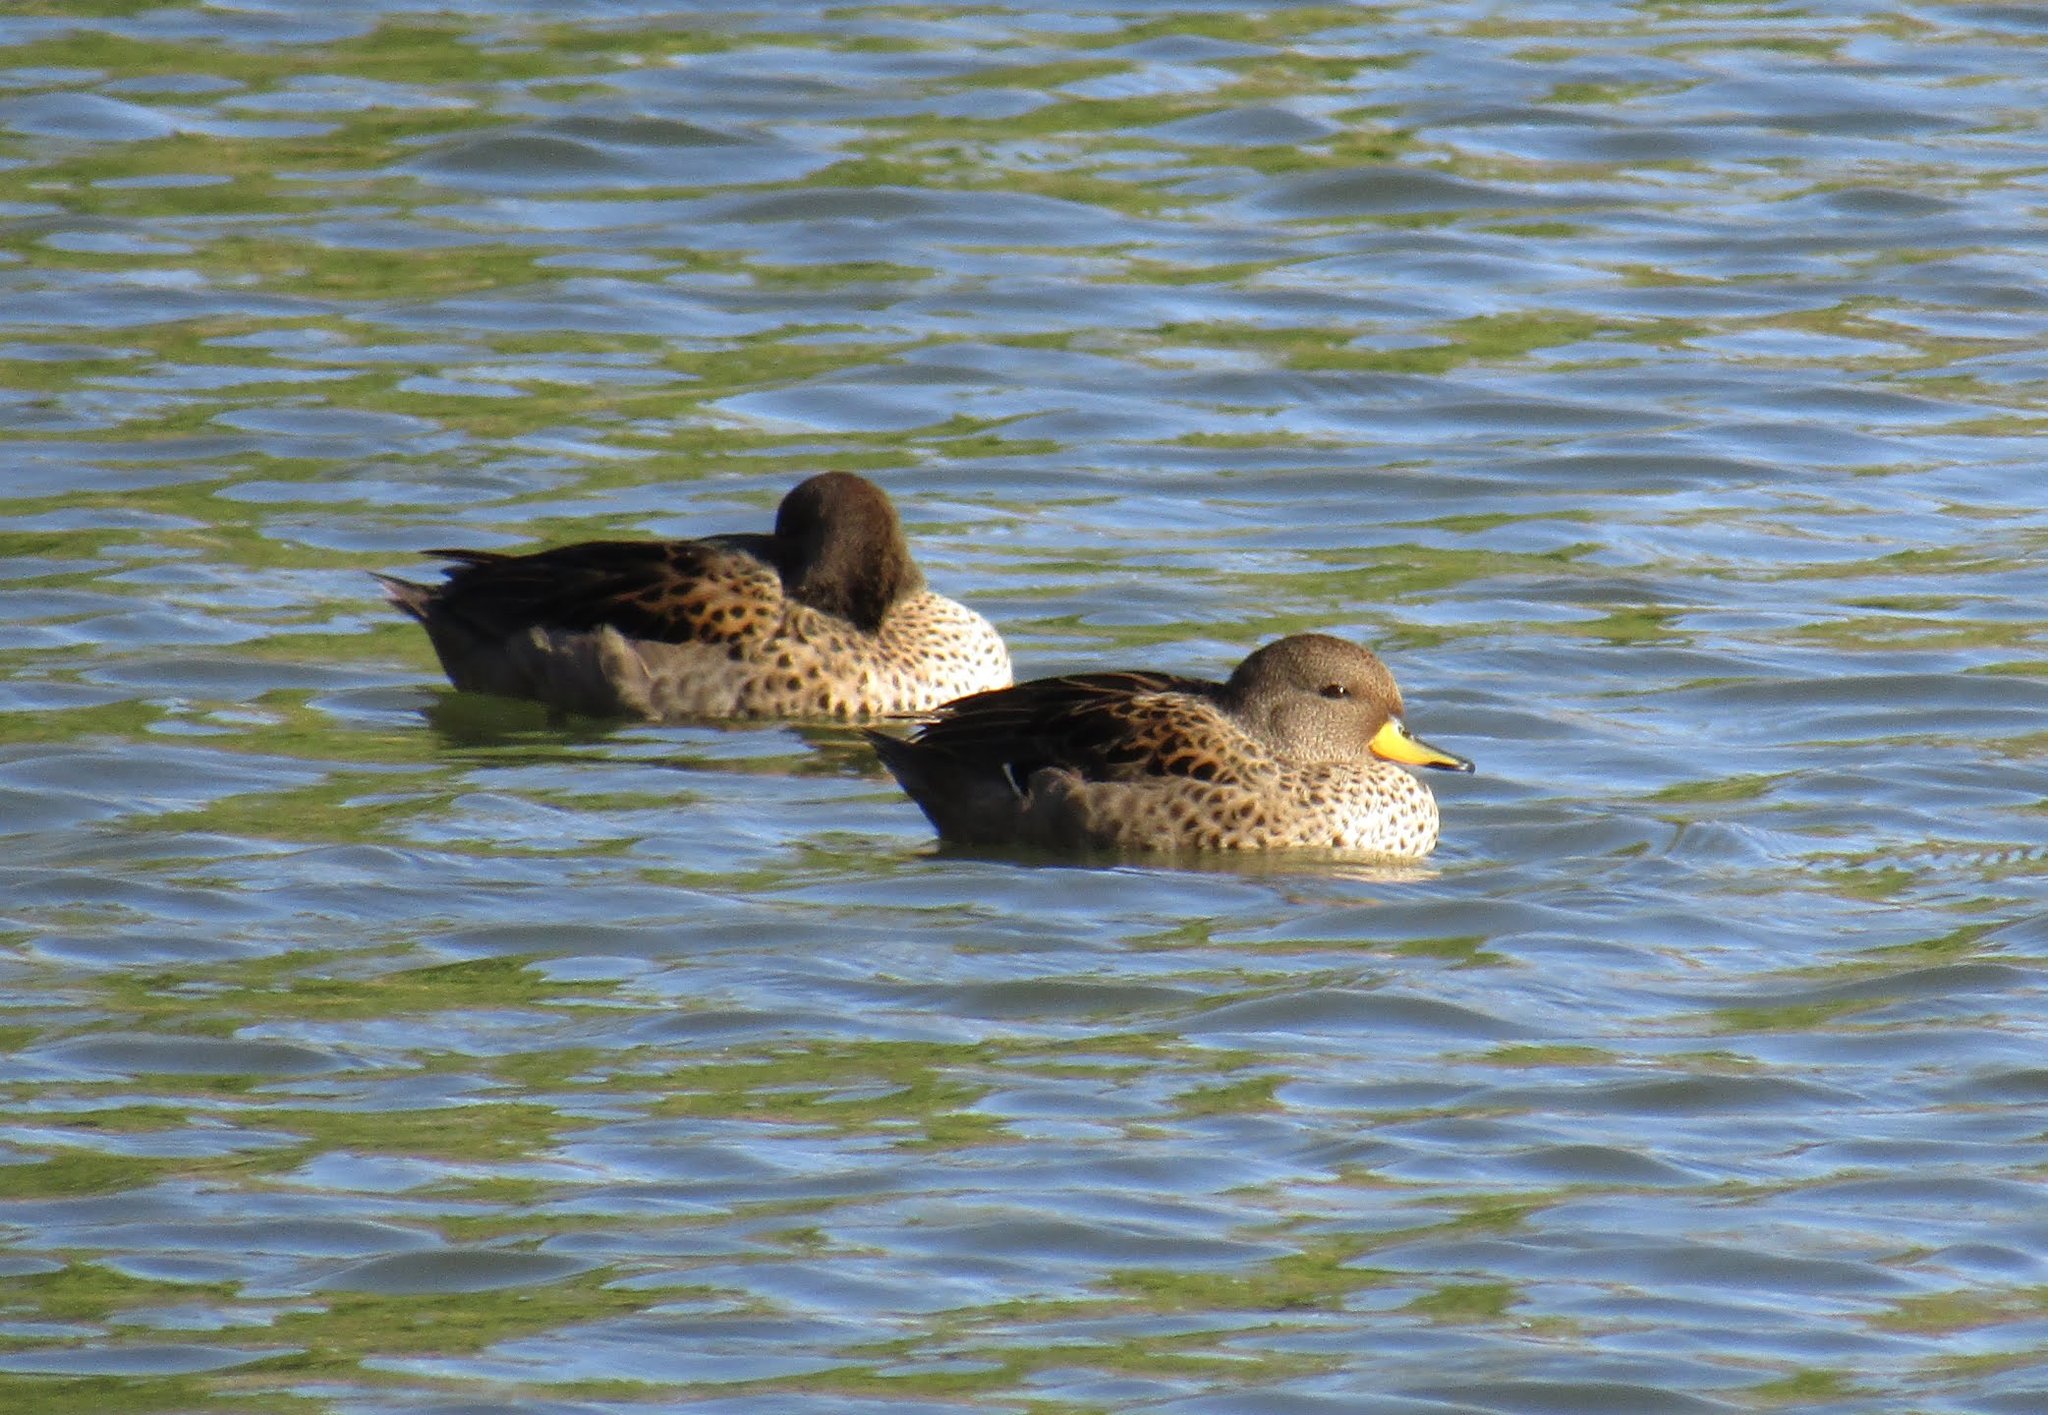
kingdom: Animalia
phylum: Chordata
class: Aves
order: Anseriformes
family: Anatidae
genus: Anas
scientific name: Anas flavirostris
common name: Yellow-billed teal
